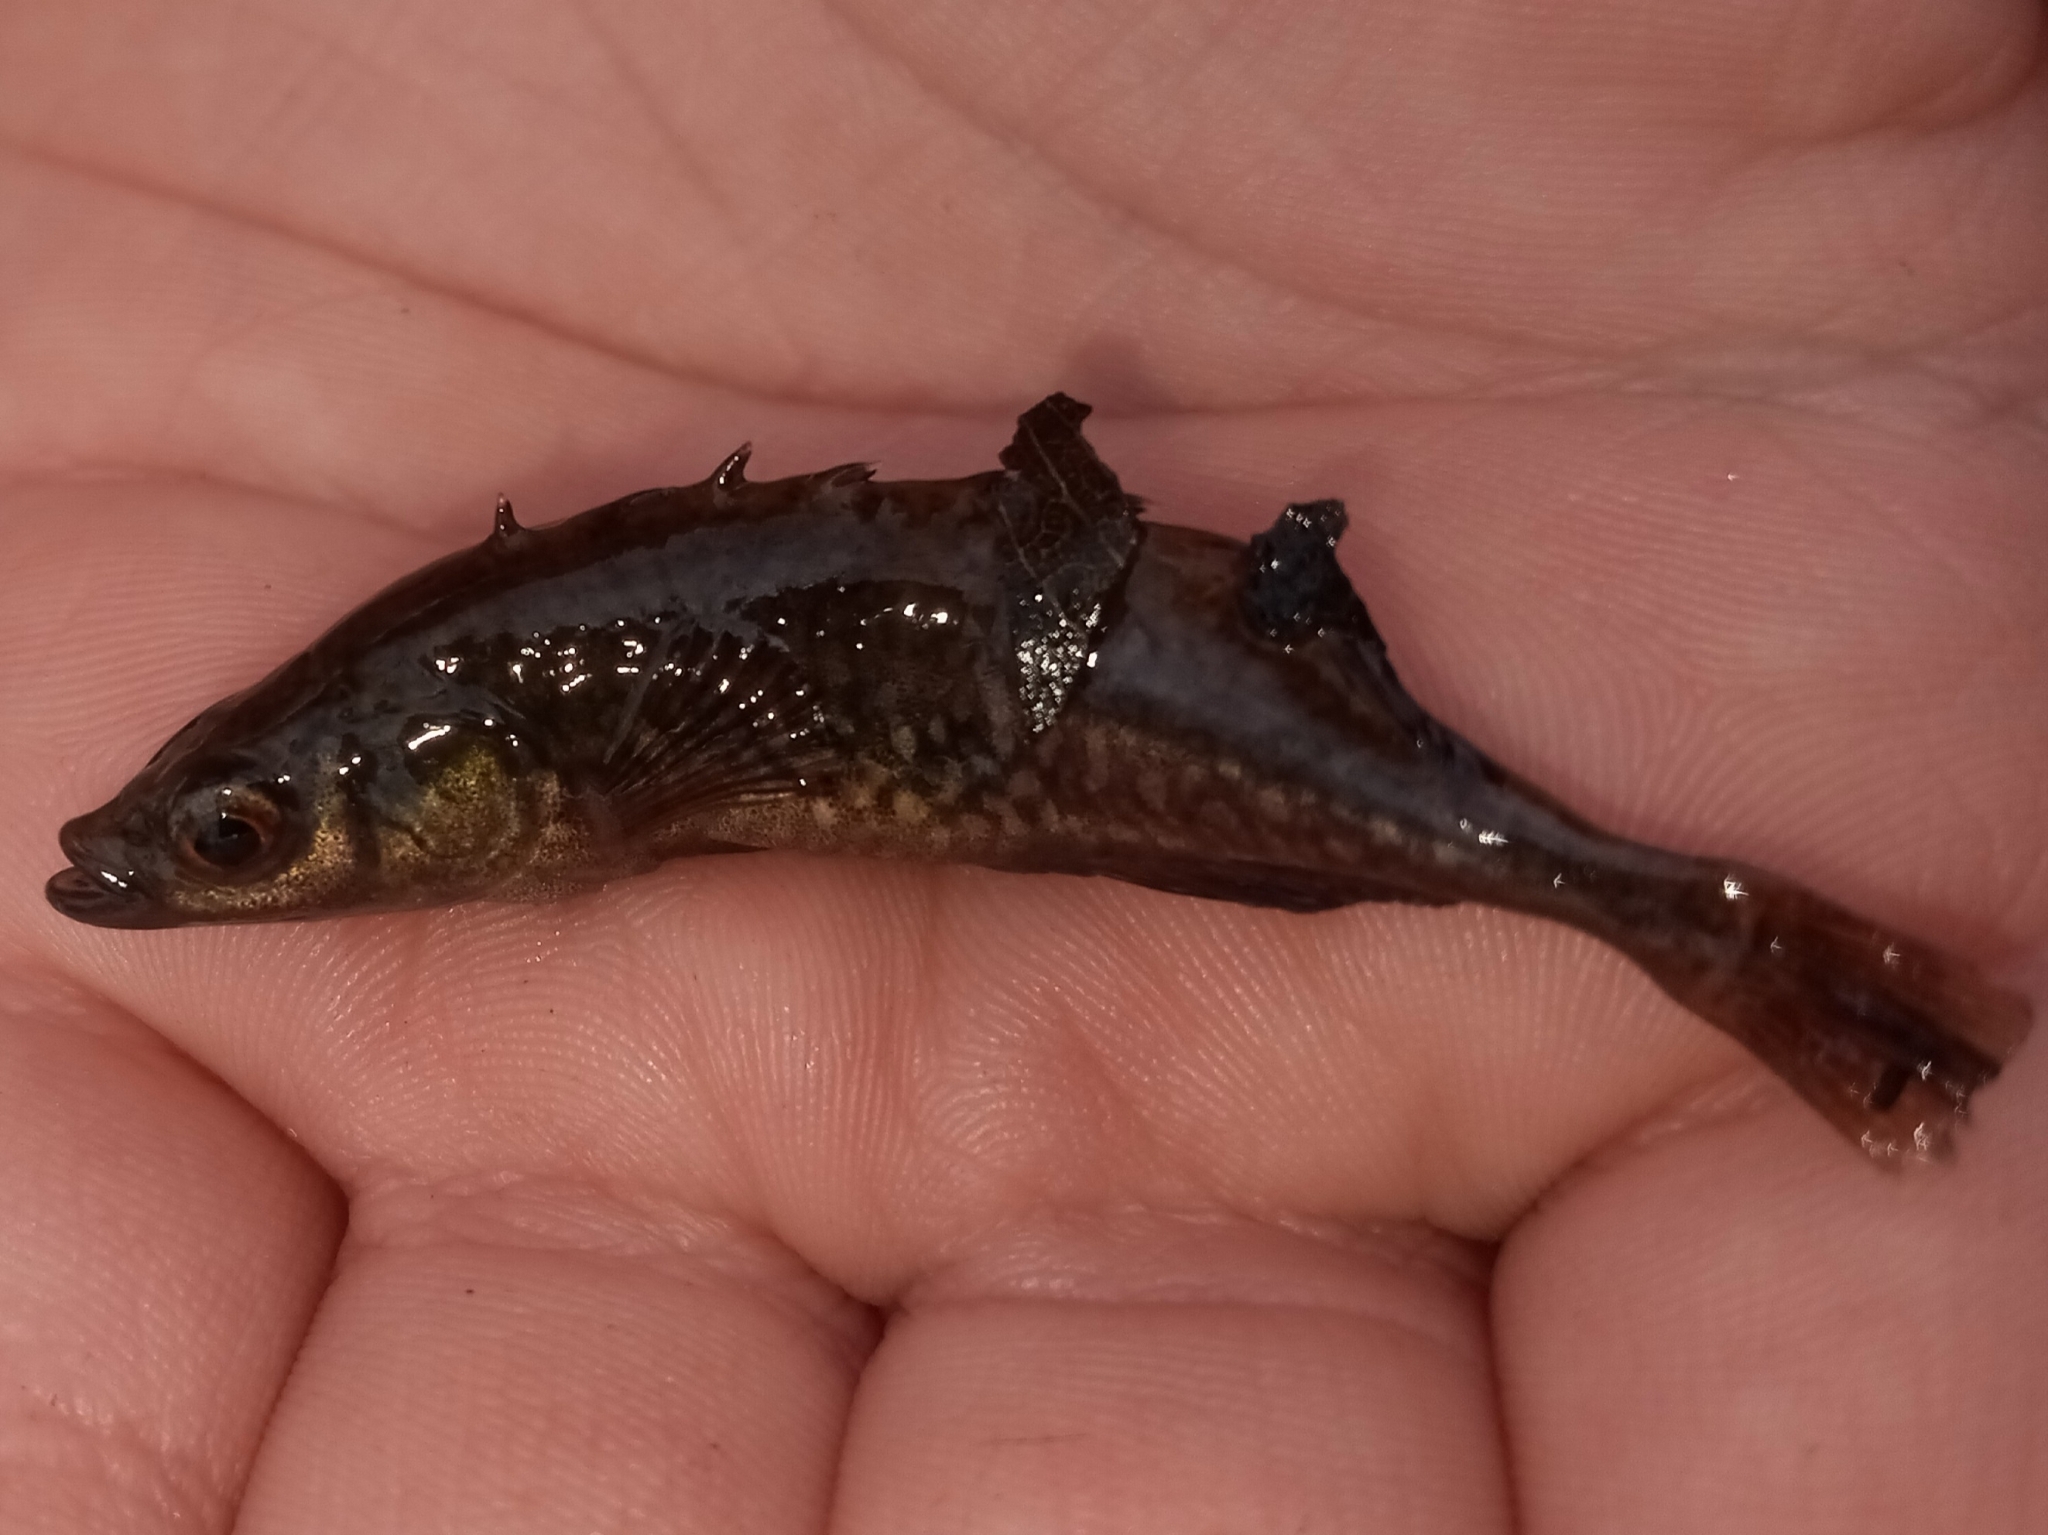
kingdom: Animalia
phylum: Chordata
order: Gasterosteiformes
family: Gasterosteidae
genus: Culaea
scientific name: Culaea inconstans
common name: Brook stickleback
